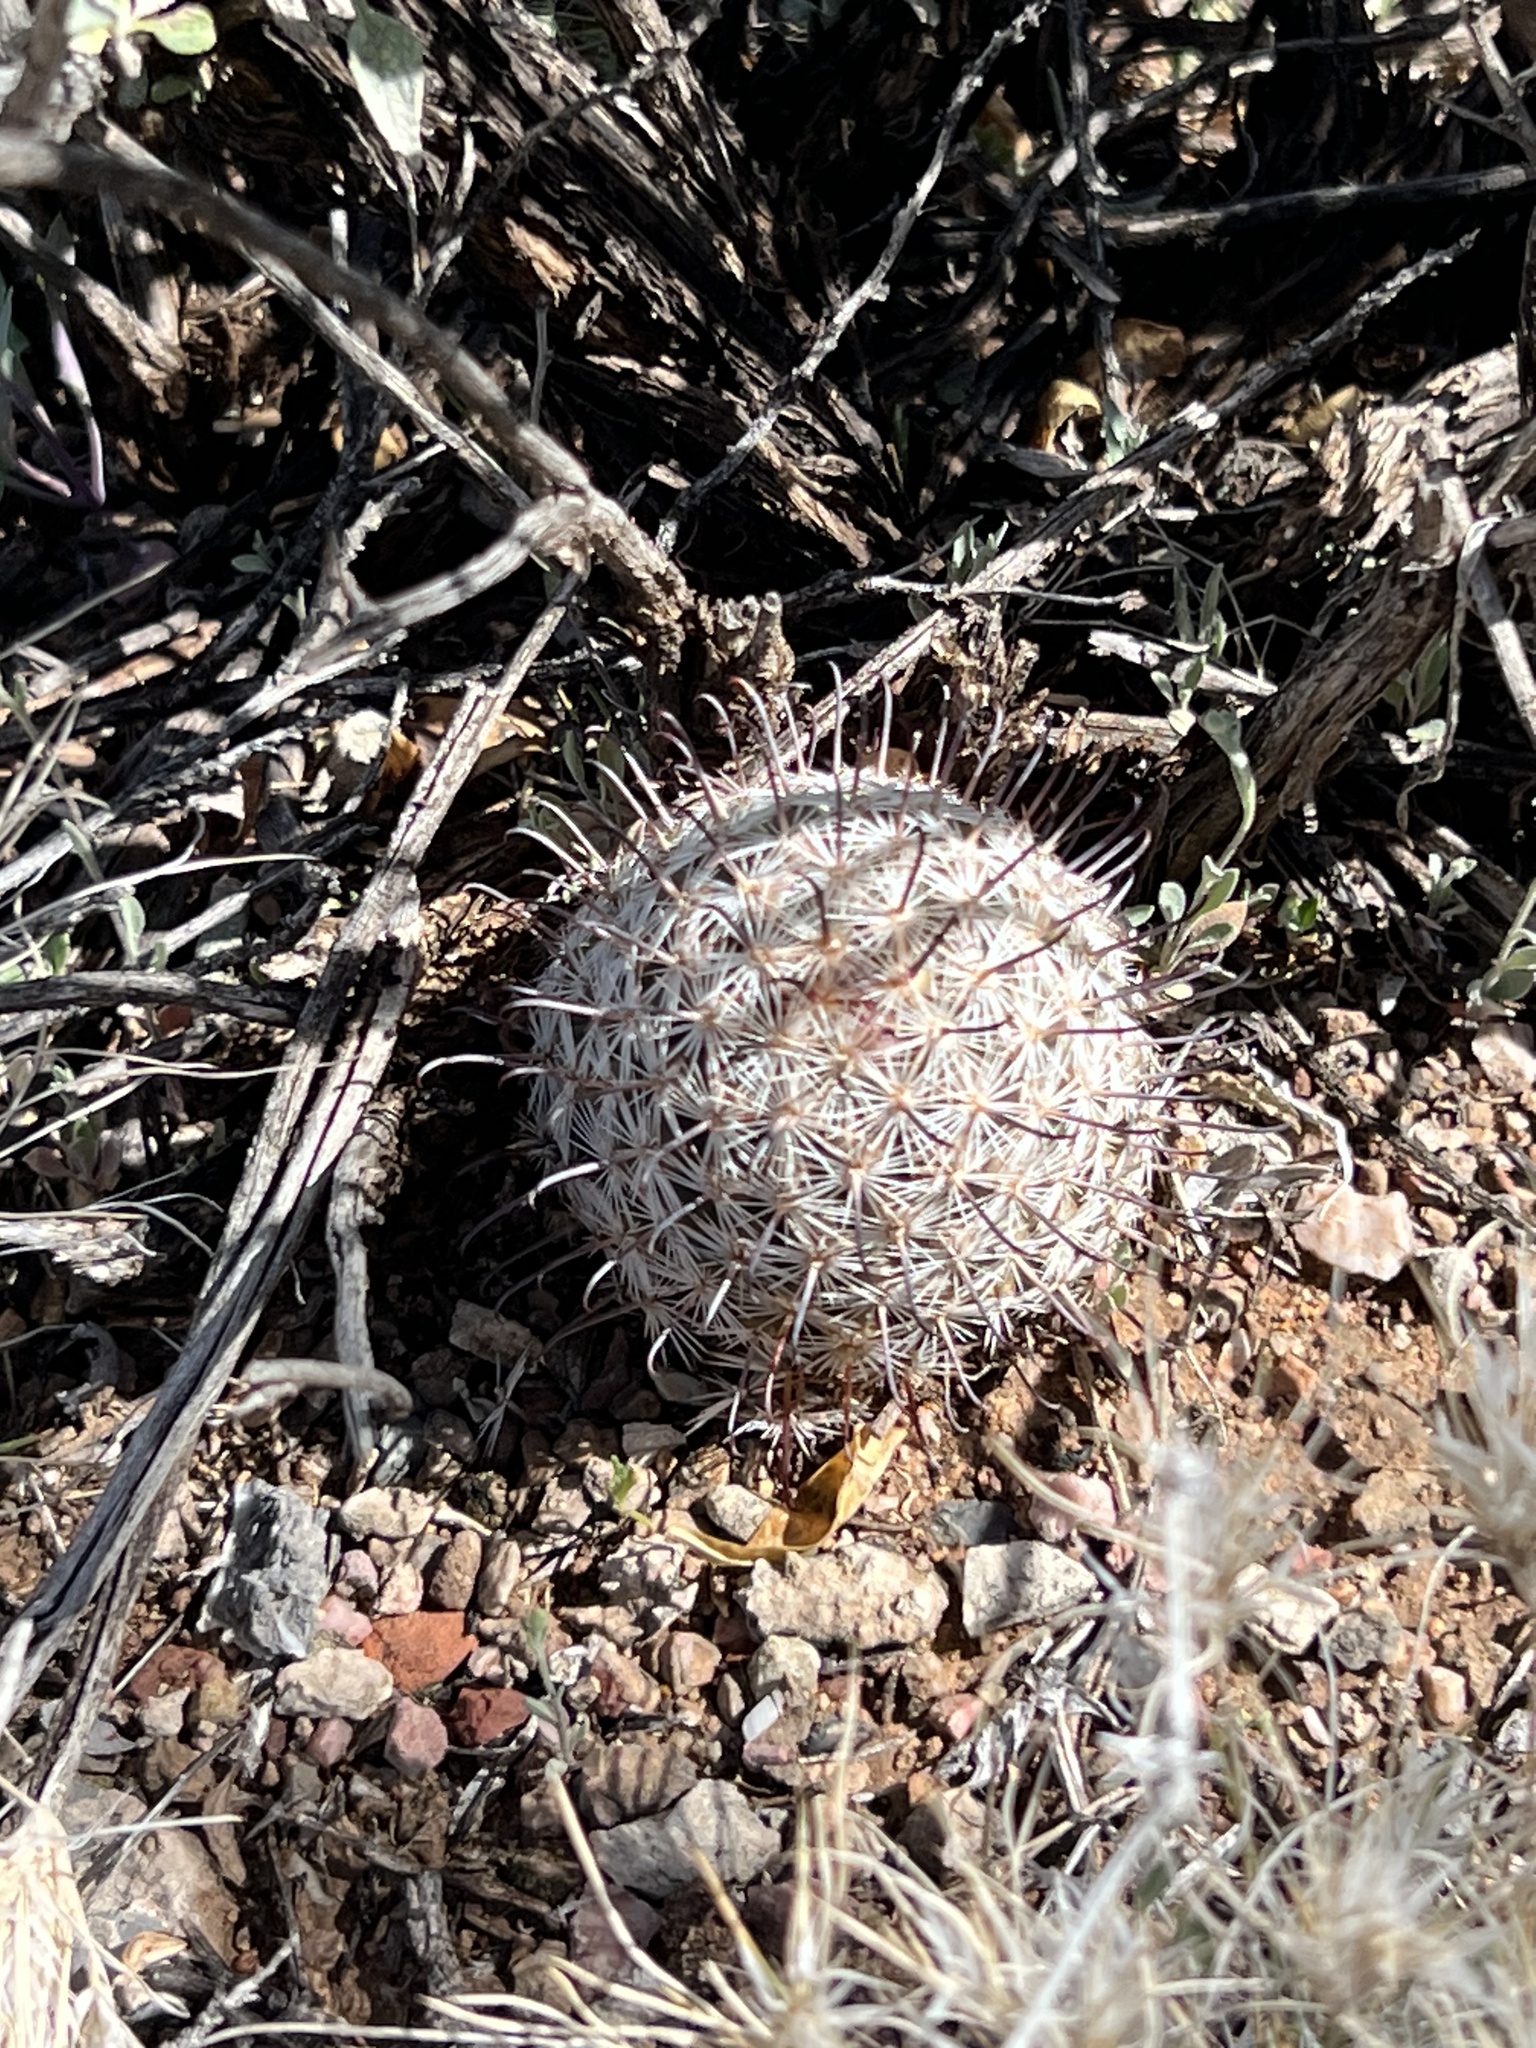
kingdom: Plantae
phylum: Tracheophyta
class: Magnoliopsida
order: Caryophyllales
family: Cactaceae
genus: Cochemiea
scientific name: Cochemiea grahamii
